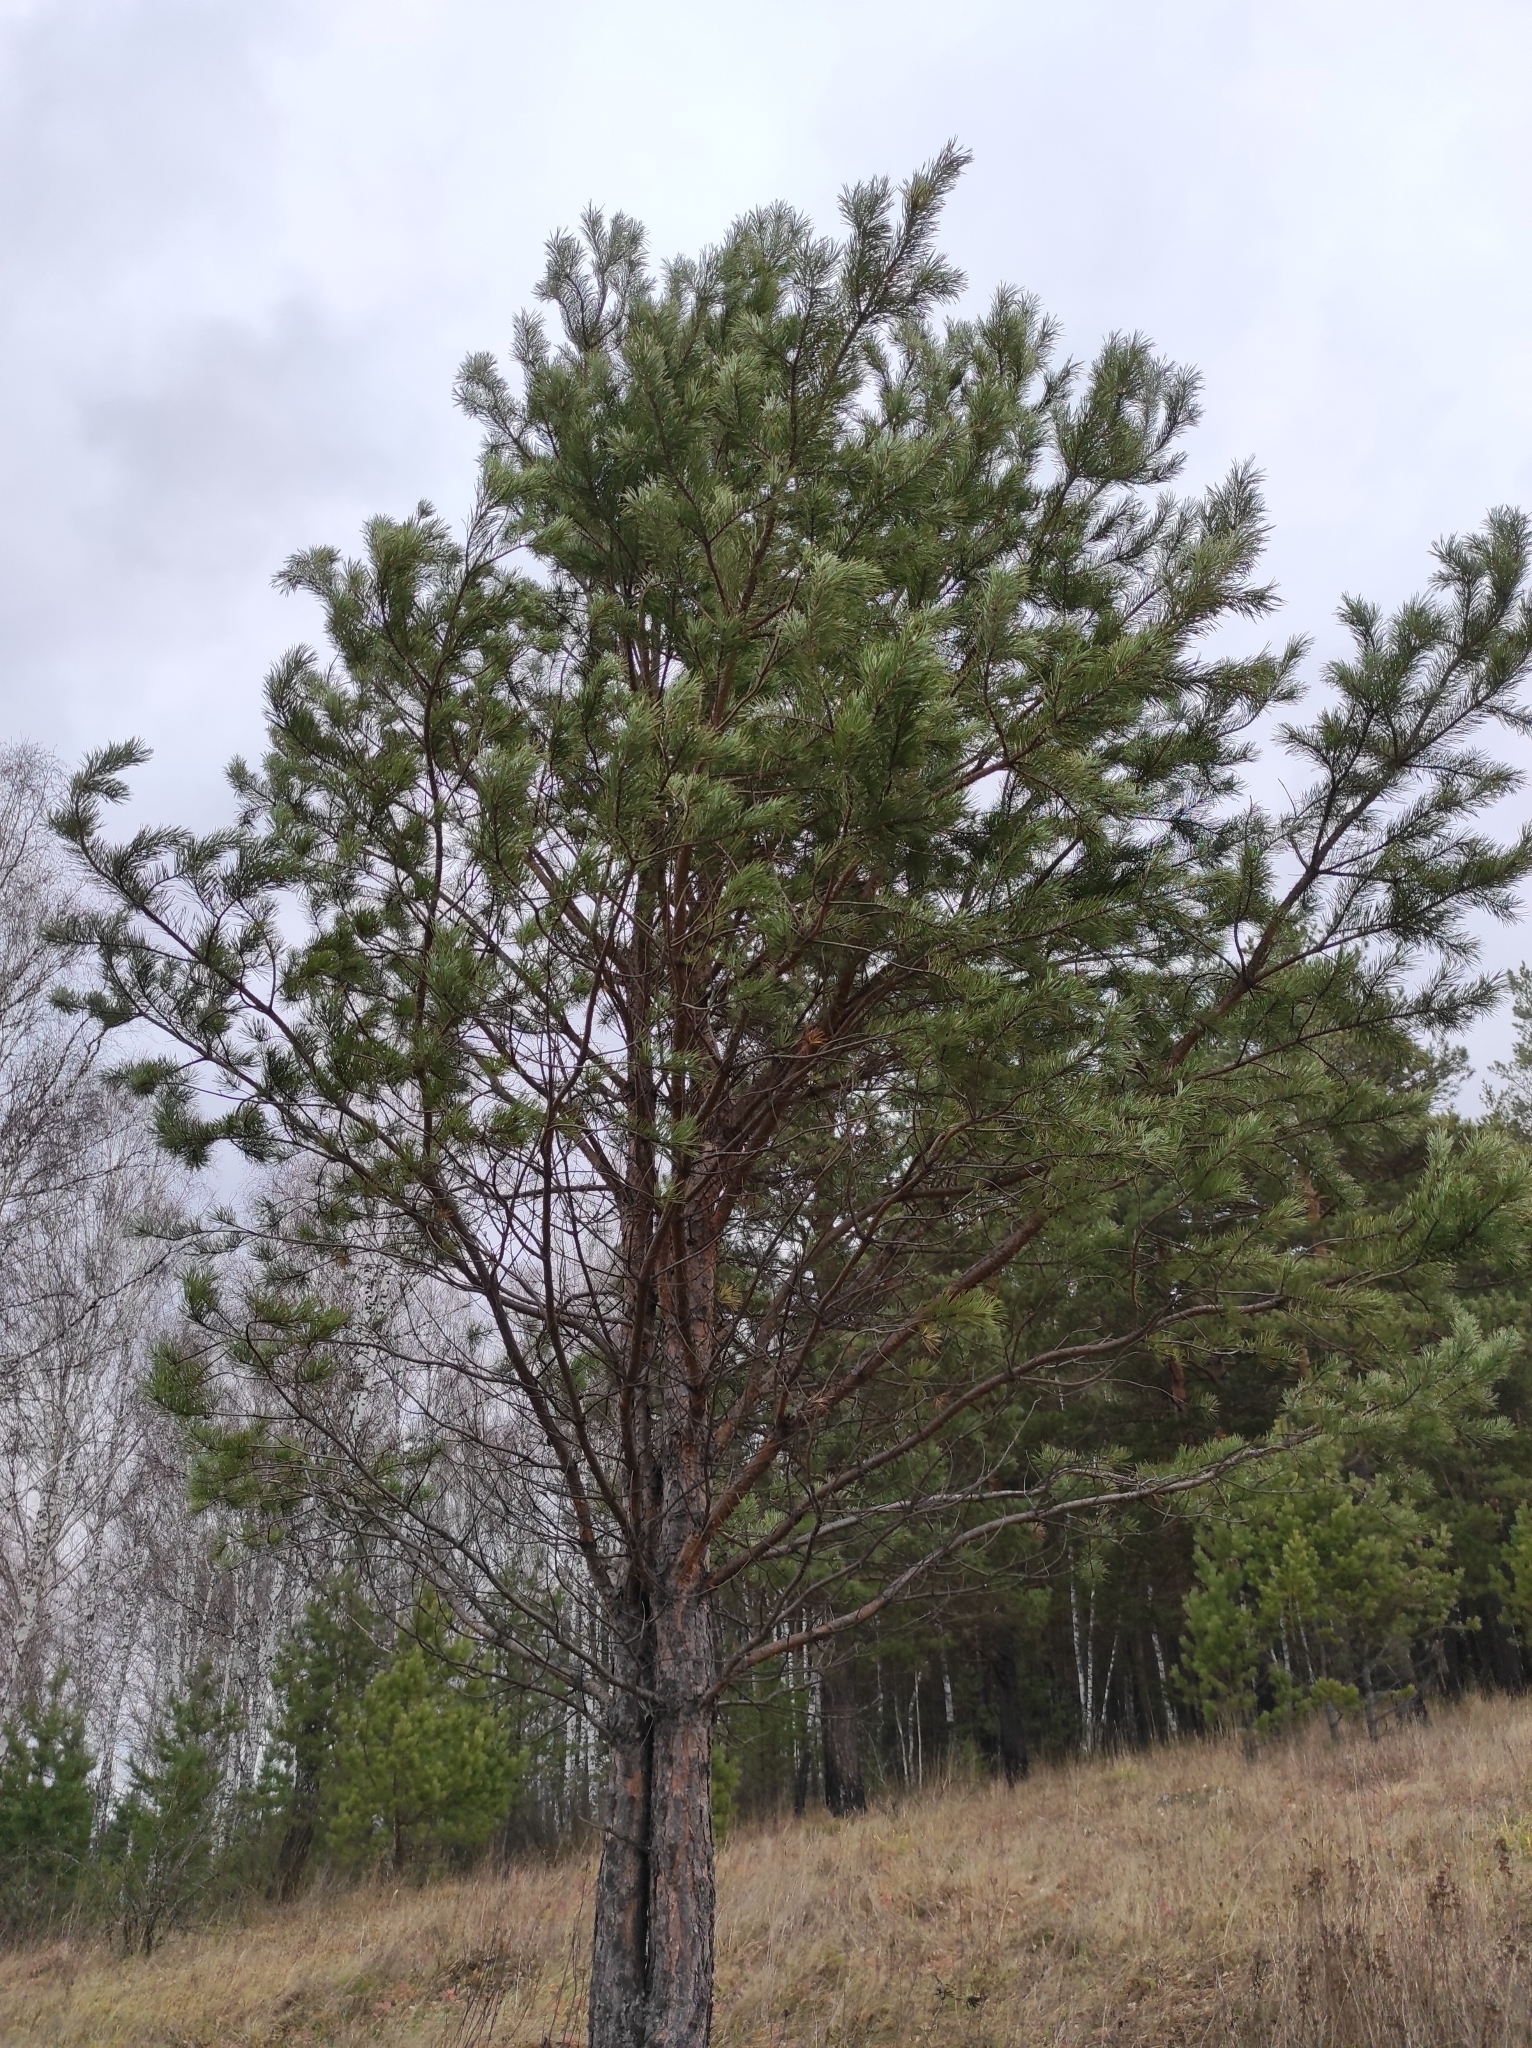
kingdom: Plantae
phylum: Tracheophyta
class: Pinopsida
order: Pinales
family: Pinaceae
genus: Pinus
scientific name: Pinus sylvestris
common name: Scots pine
